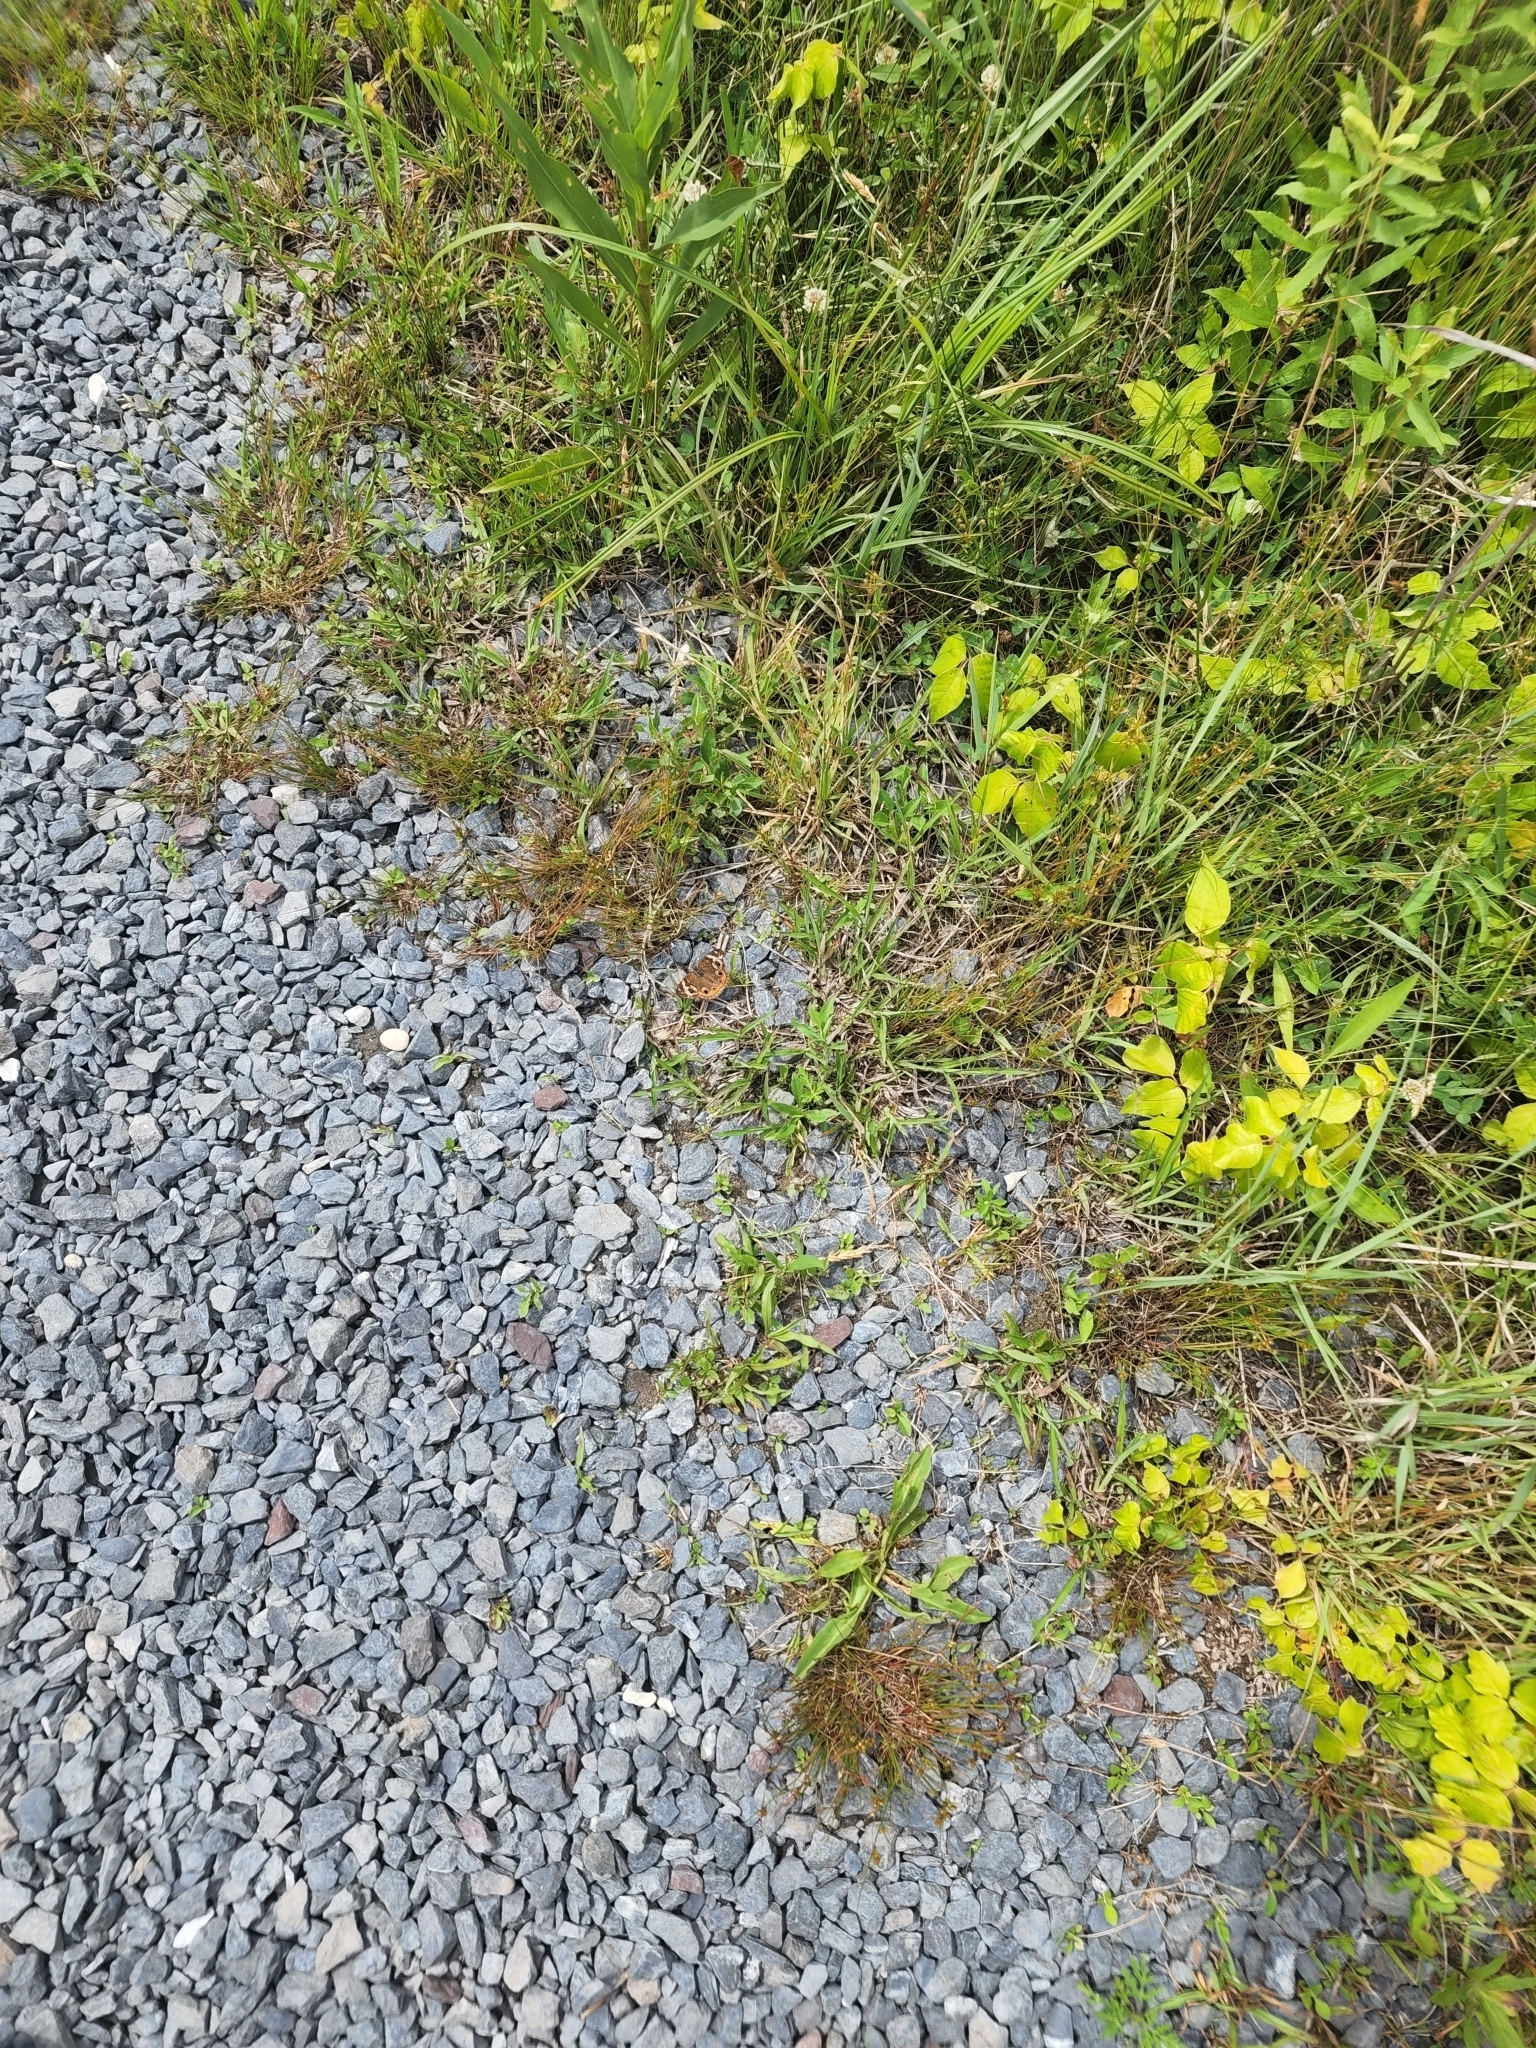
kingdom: Animalia
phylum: Arthropoda
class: Insecta
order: Lepidoptera
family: Nymphalidae
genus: Junonia
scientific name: Junonia coenia
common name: Common buckeye
